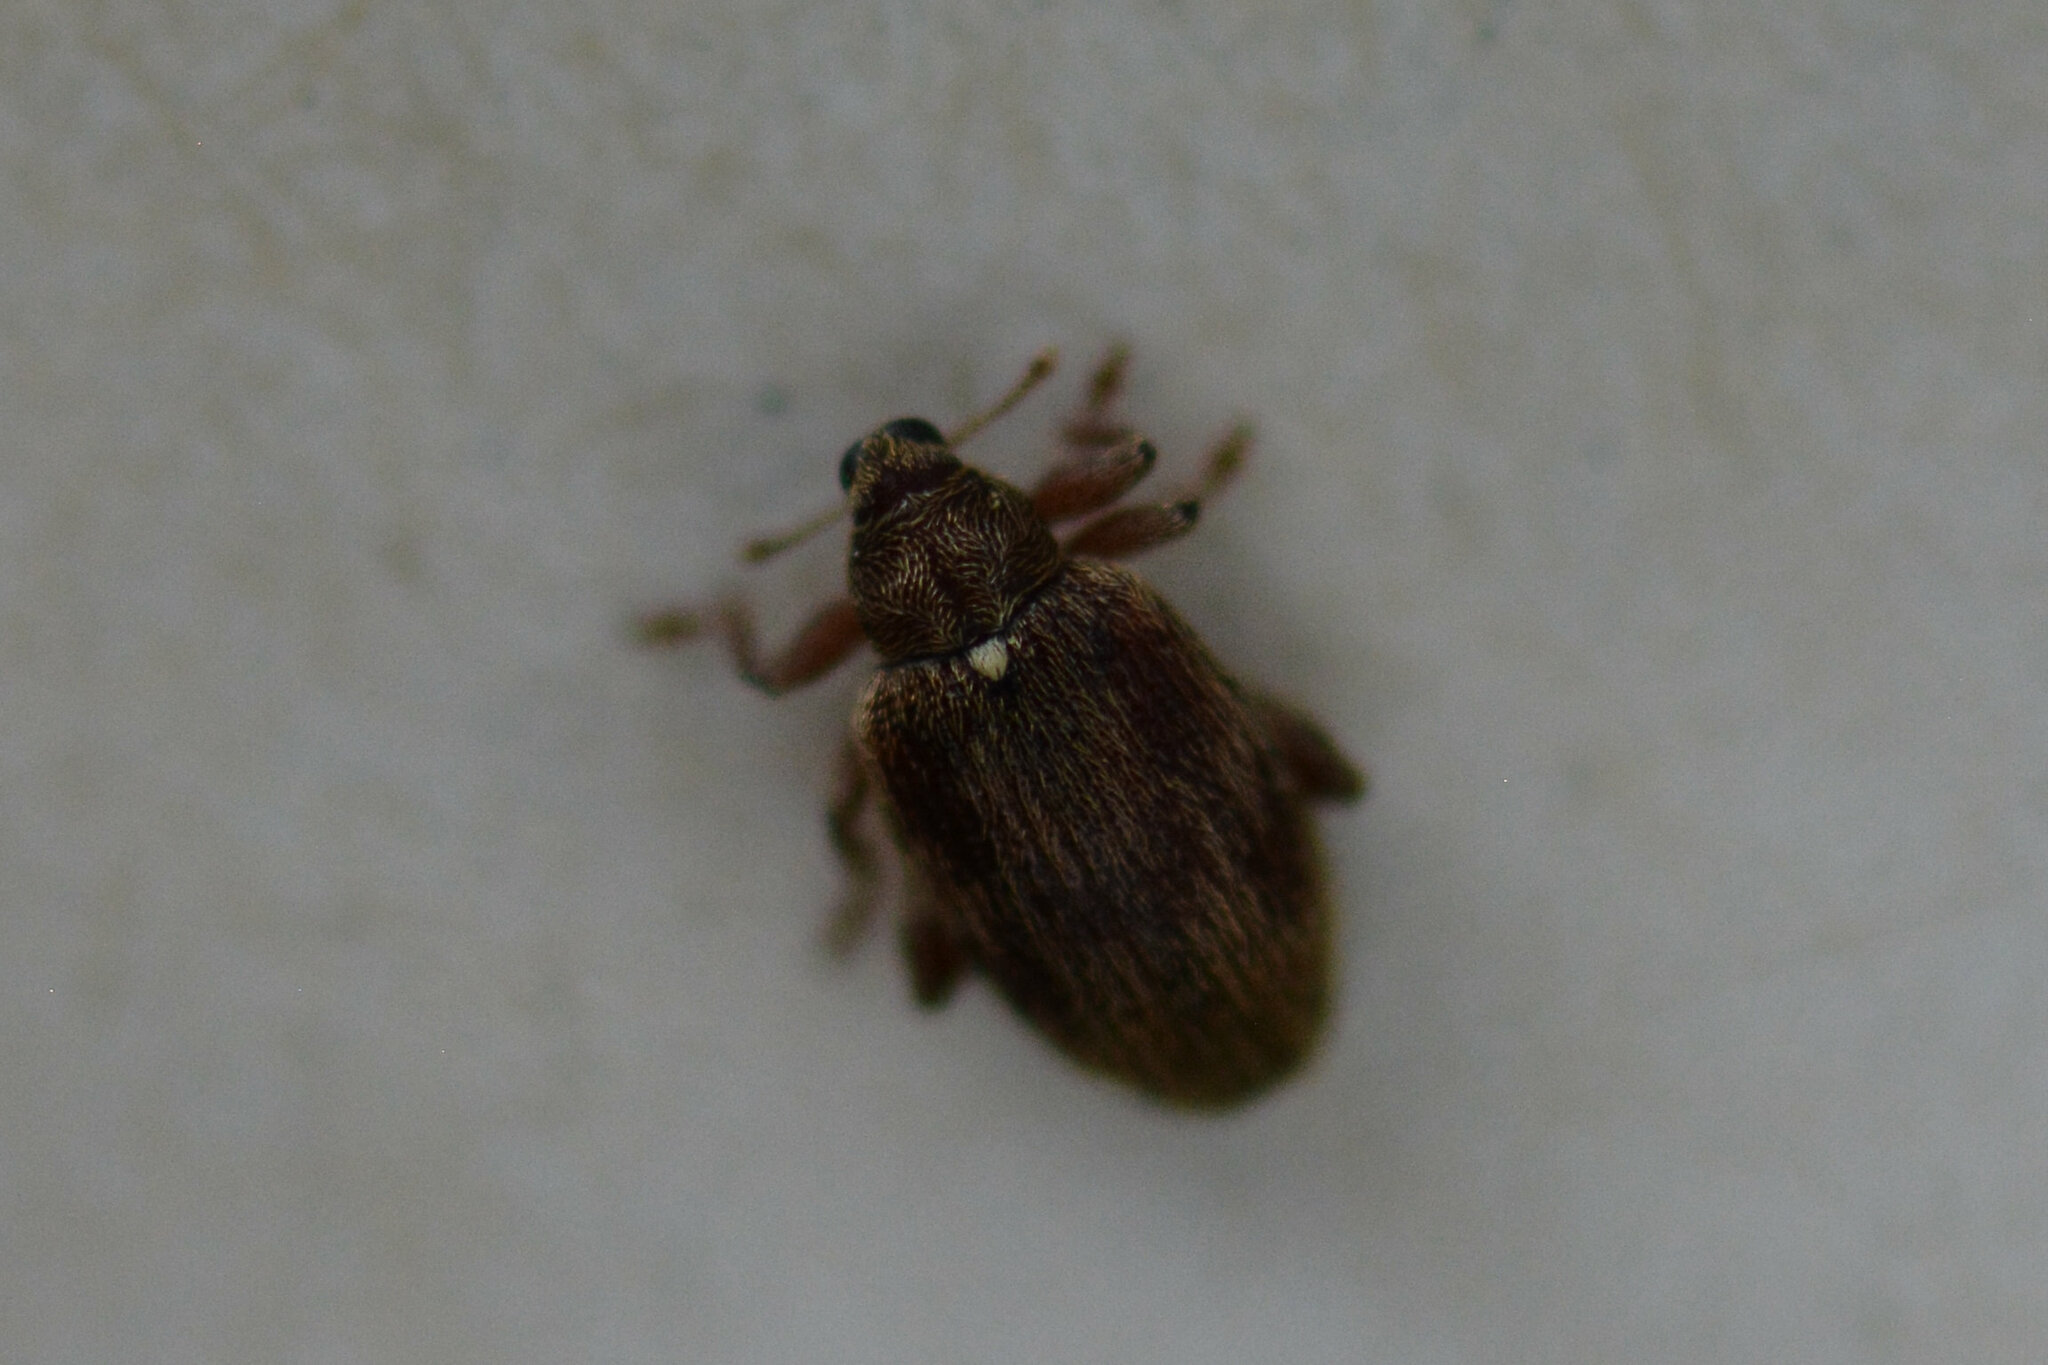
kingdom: Animalia
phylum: Arthropoda
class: Insecta
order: Coleoptera
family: Curculionidae
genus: Orchestes
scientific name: Orchestes testaceus
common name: Jumping weevil
